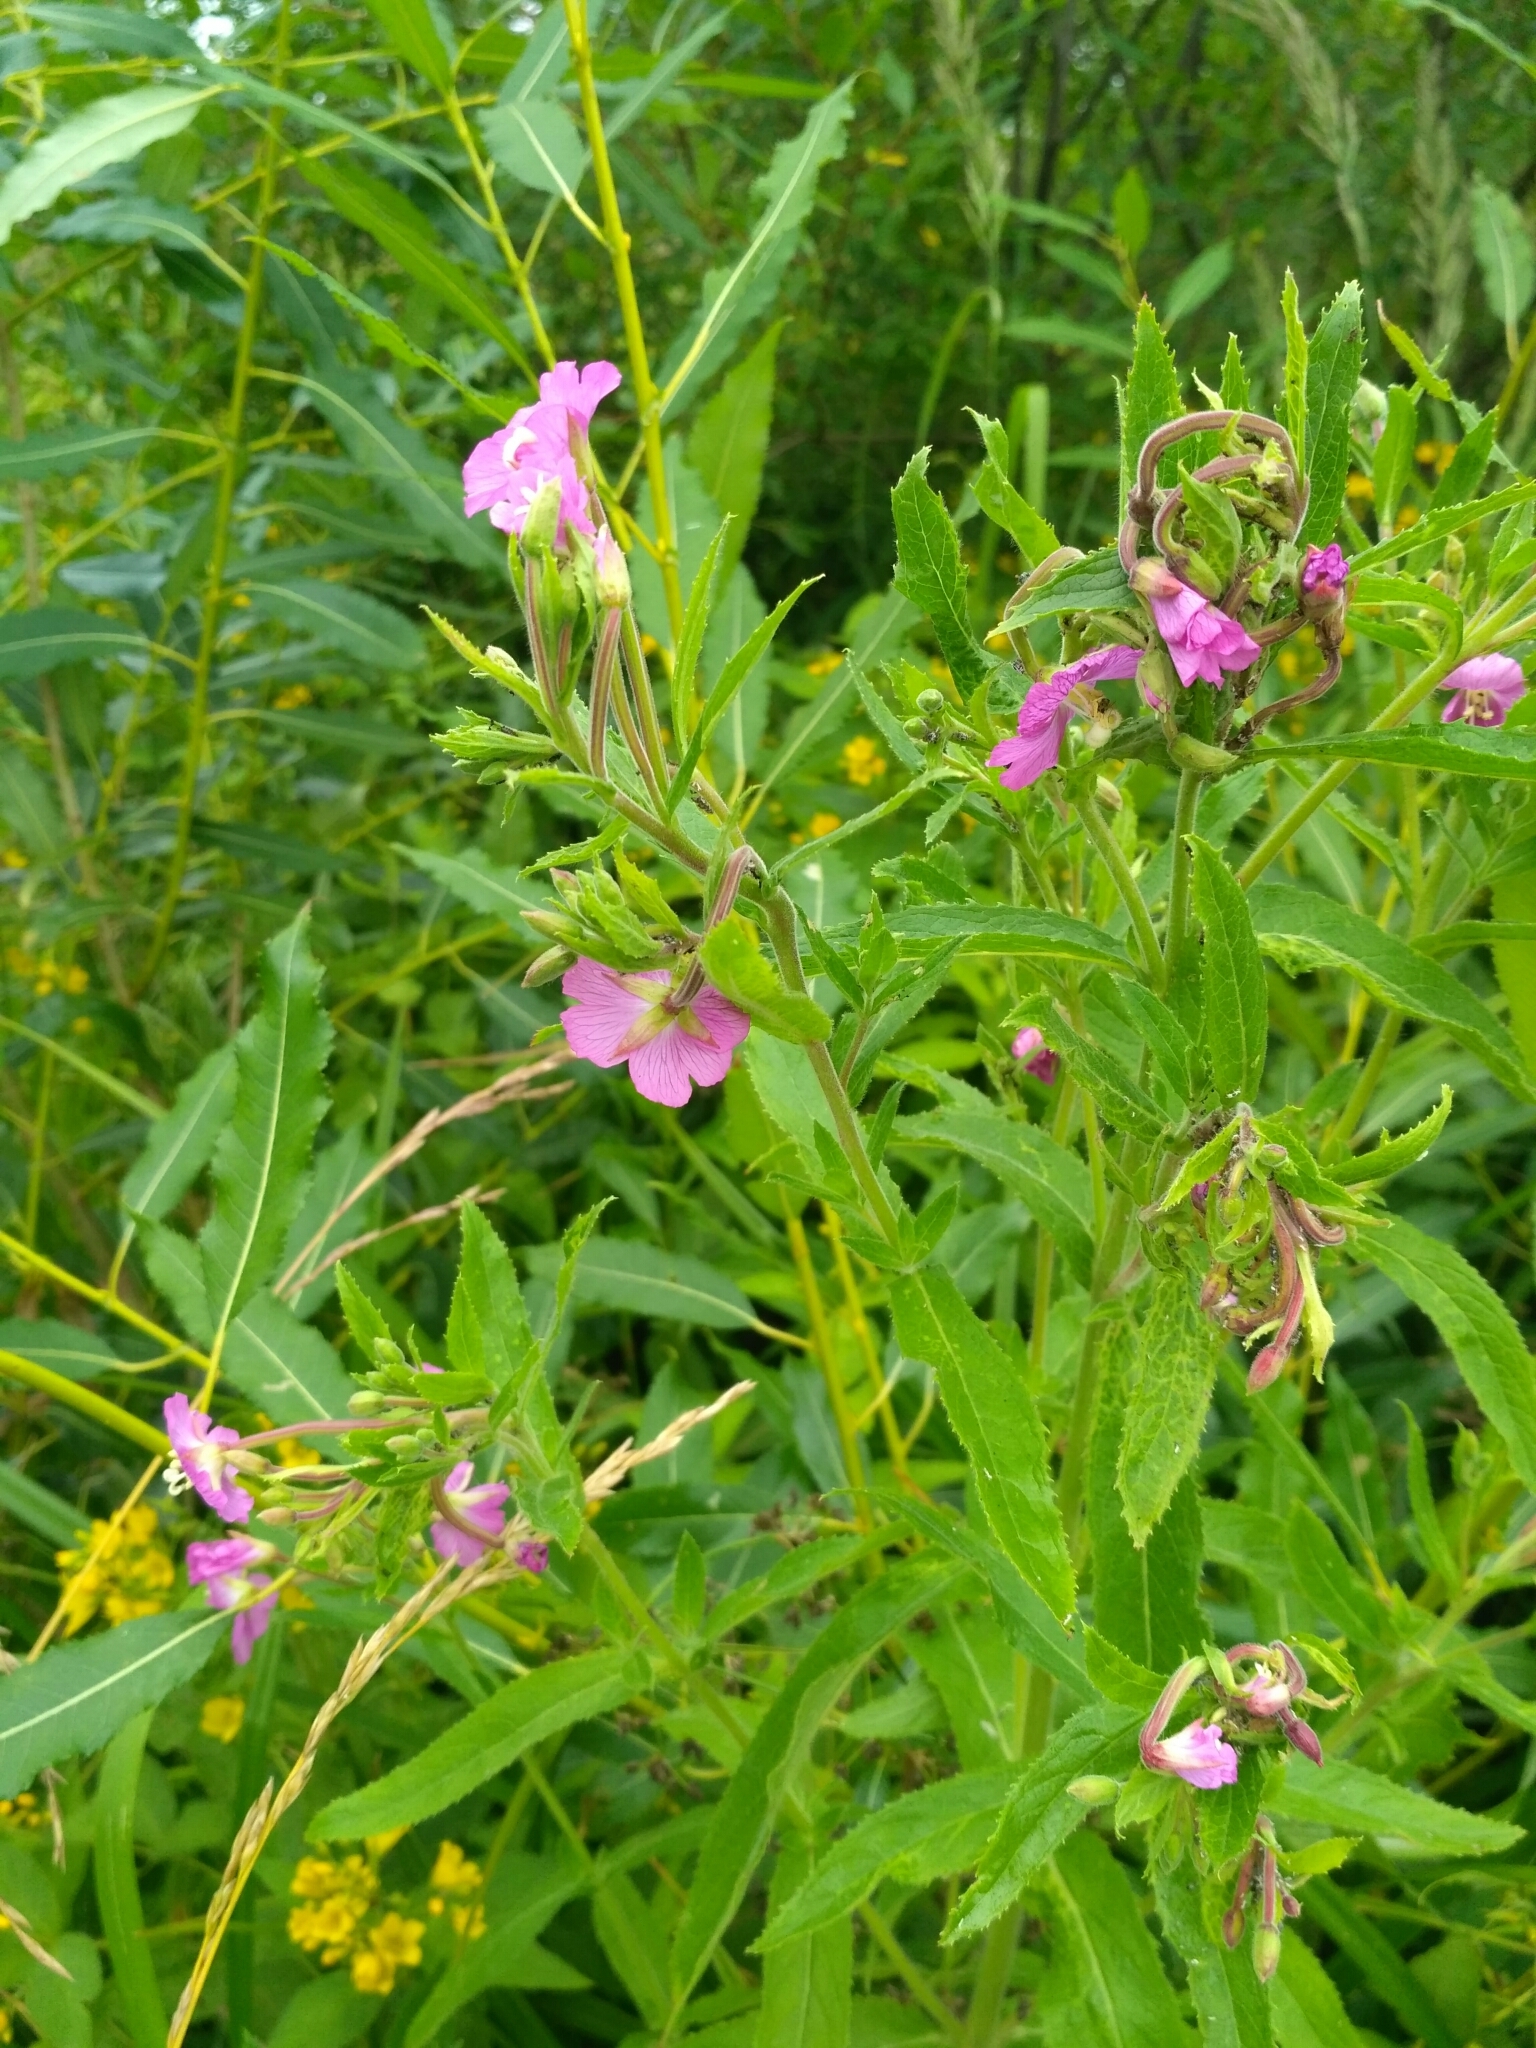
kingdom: Plantae
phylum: Tracheophyta
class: Magnoliopsida
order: Myrtales
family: Onagraceae
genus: Epilobium
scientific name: Epilobium hirsutum
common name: Great willowherb
